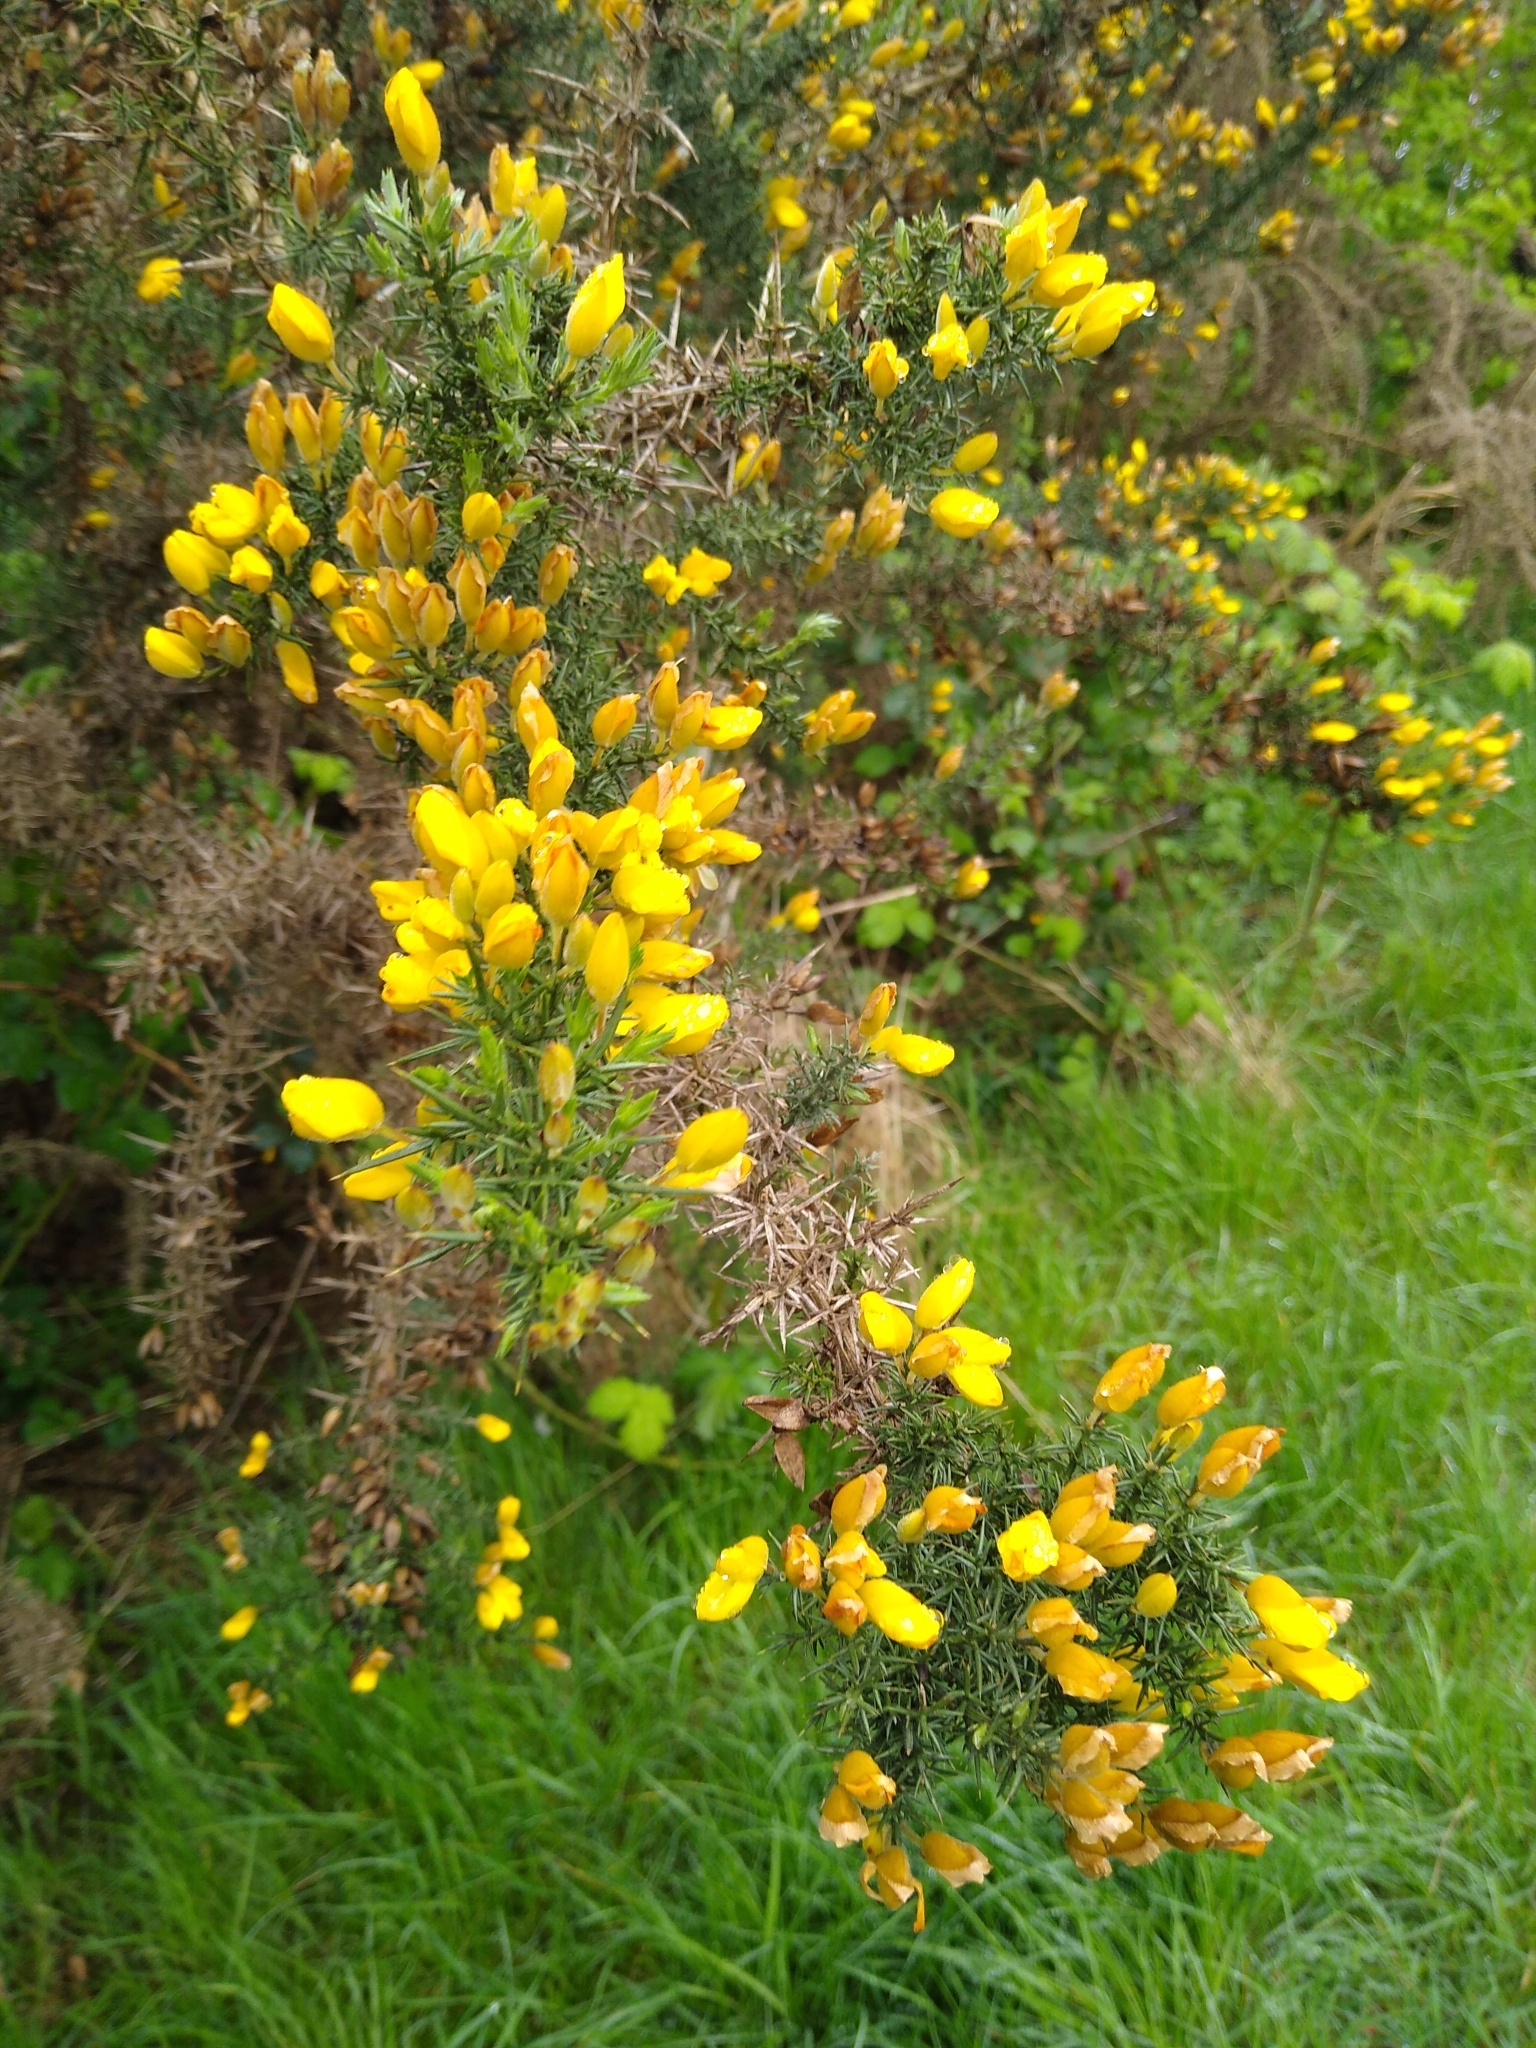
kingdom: Plantae
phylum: Tracheophyta
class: Magnoliopsida
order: Fabales
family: Fabaceae
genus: Ulex
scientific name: Ulex europaeus
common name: Common gorse
